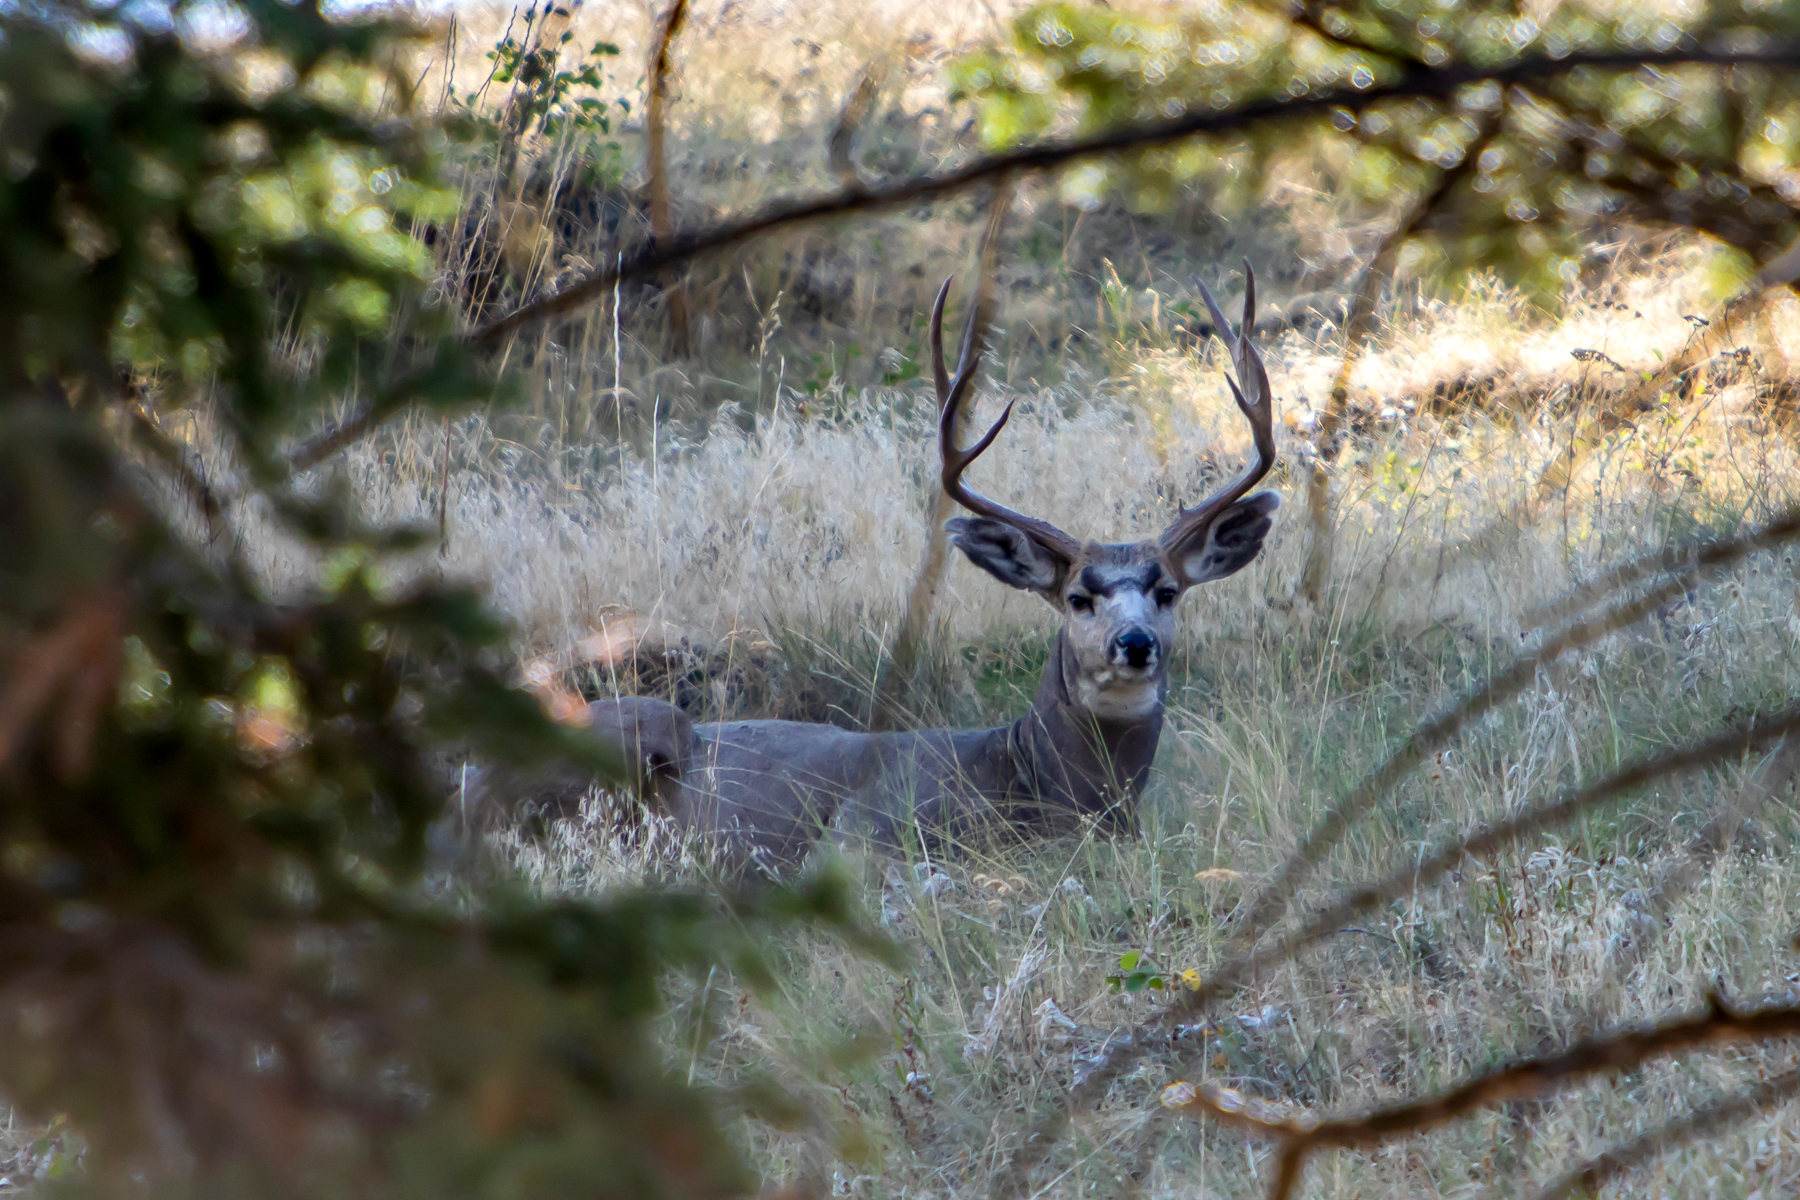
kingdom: Animalia
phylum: Chordata
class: Mammalia
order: Artiodactyla
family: Cervidae
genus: Odocoileus
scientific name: Odocoileus hemionus
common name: Mule deer
